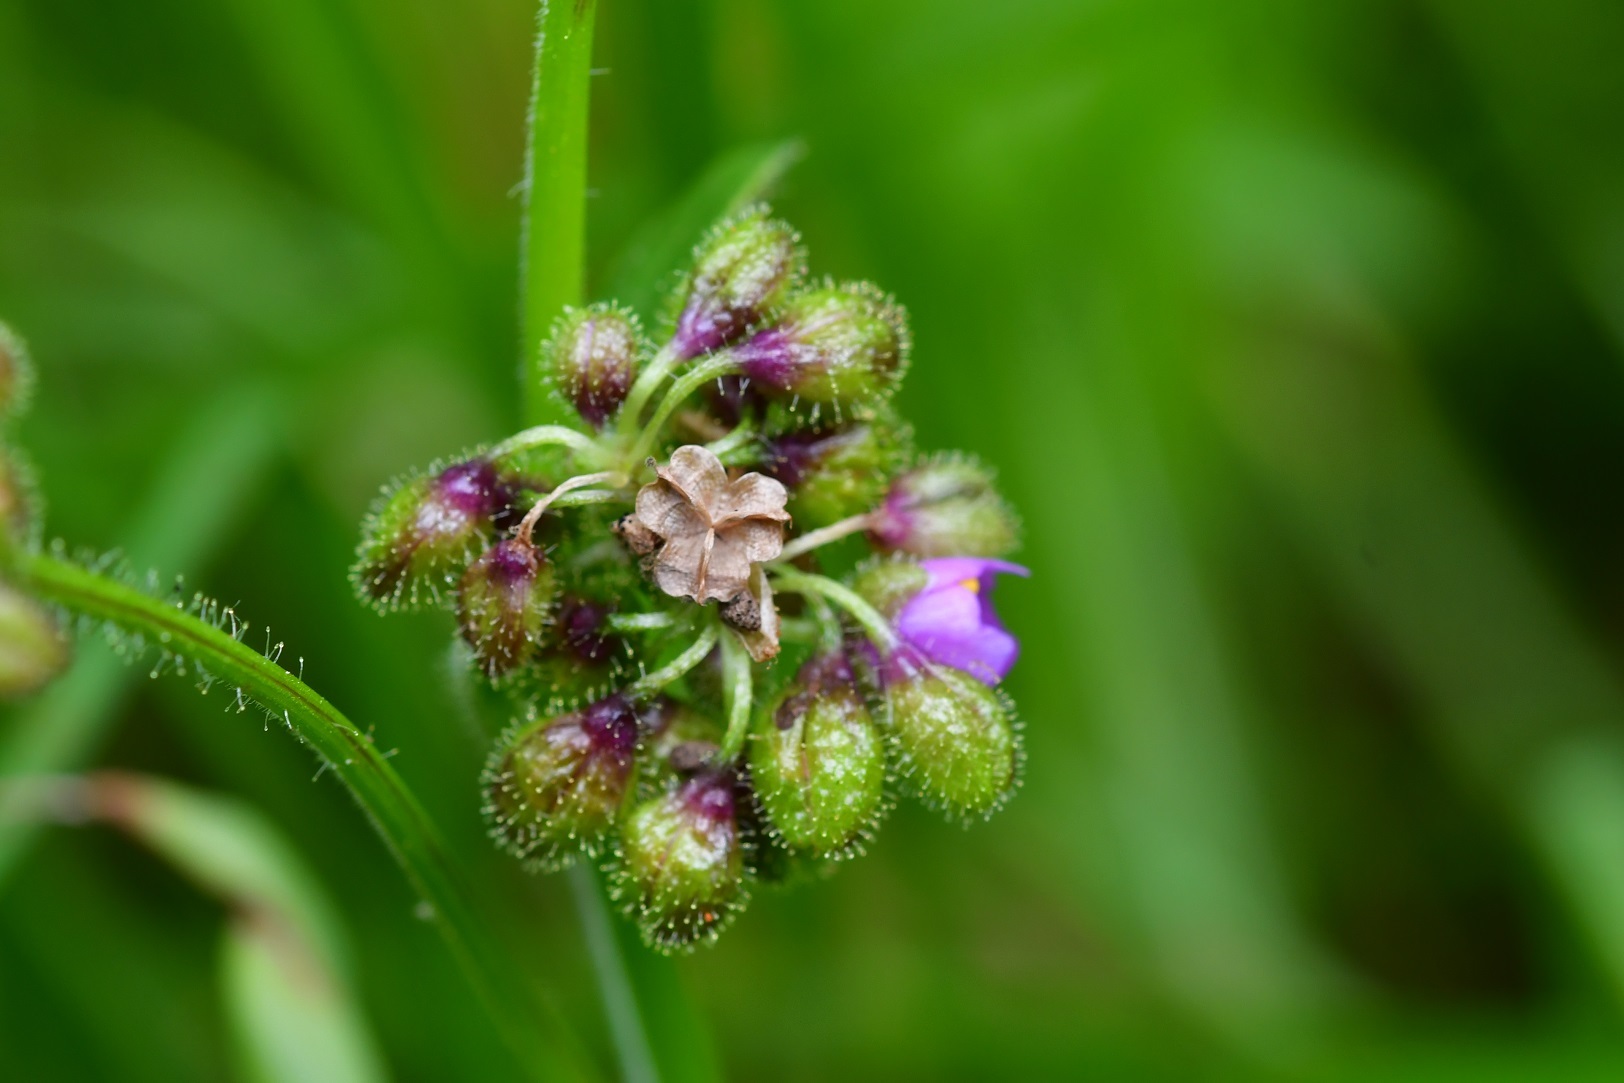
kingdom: Plantae
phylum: Tracheophyta
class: Liliopsida
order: Commelinales
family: Commelinaceae
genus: Callisia
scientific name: Callisia purpurascens
